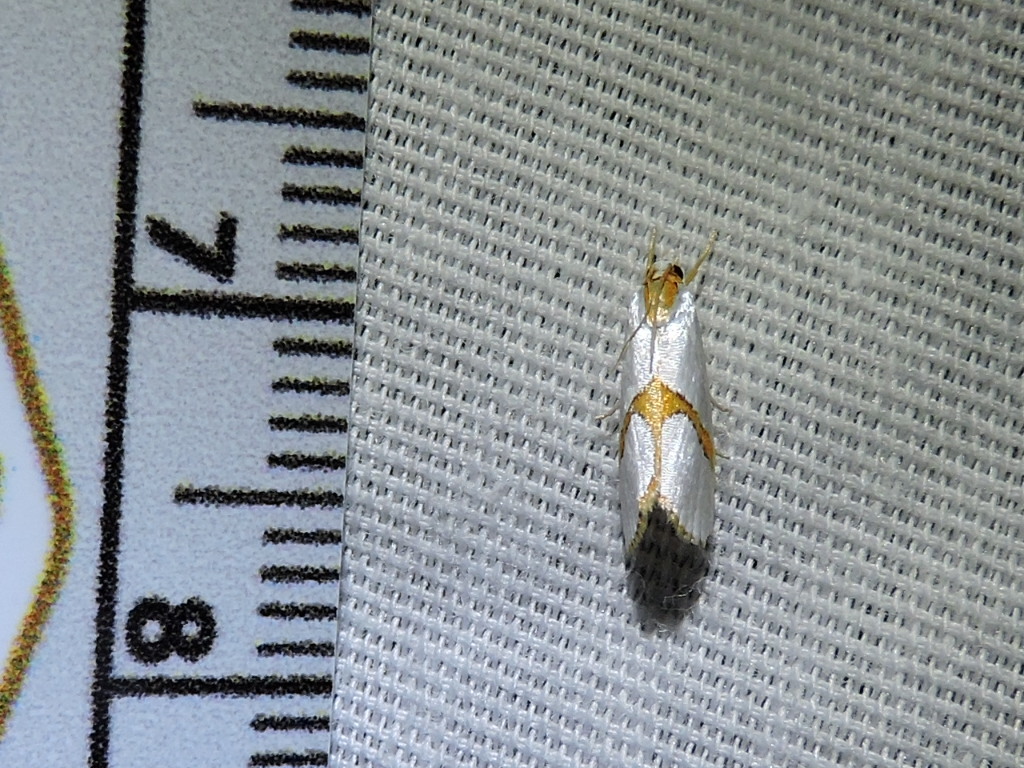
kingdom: Animalia
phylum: Arthropoda
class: Insecta
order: Lepidoptera
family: Crambidae
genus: Argyria
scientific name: Argyria auratella
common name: Curve-lined argyria moth
